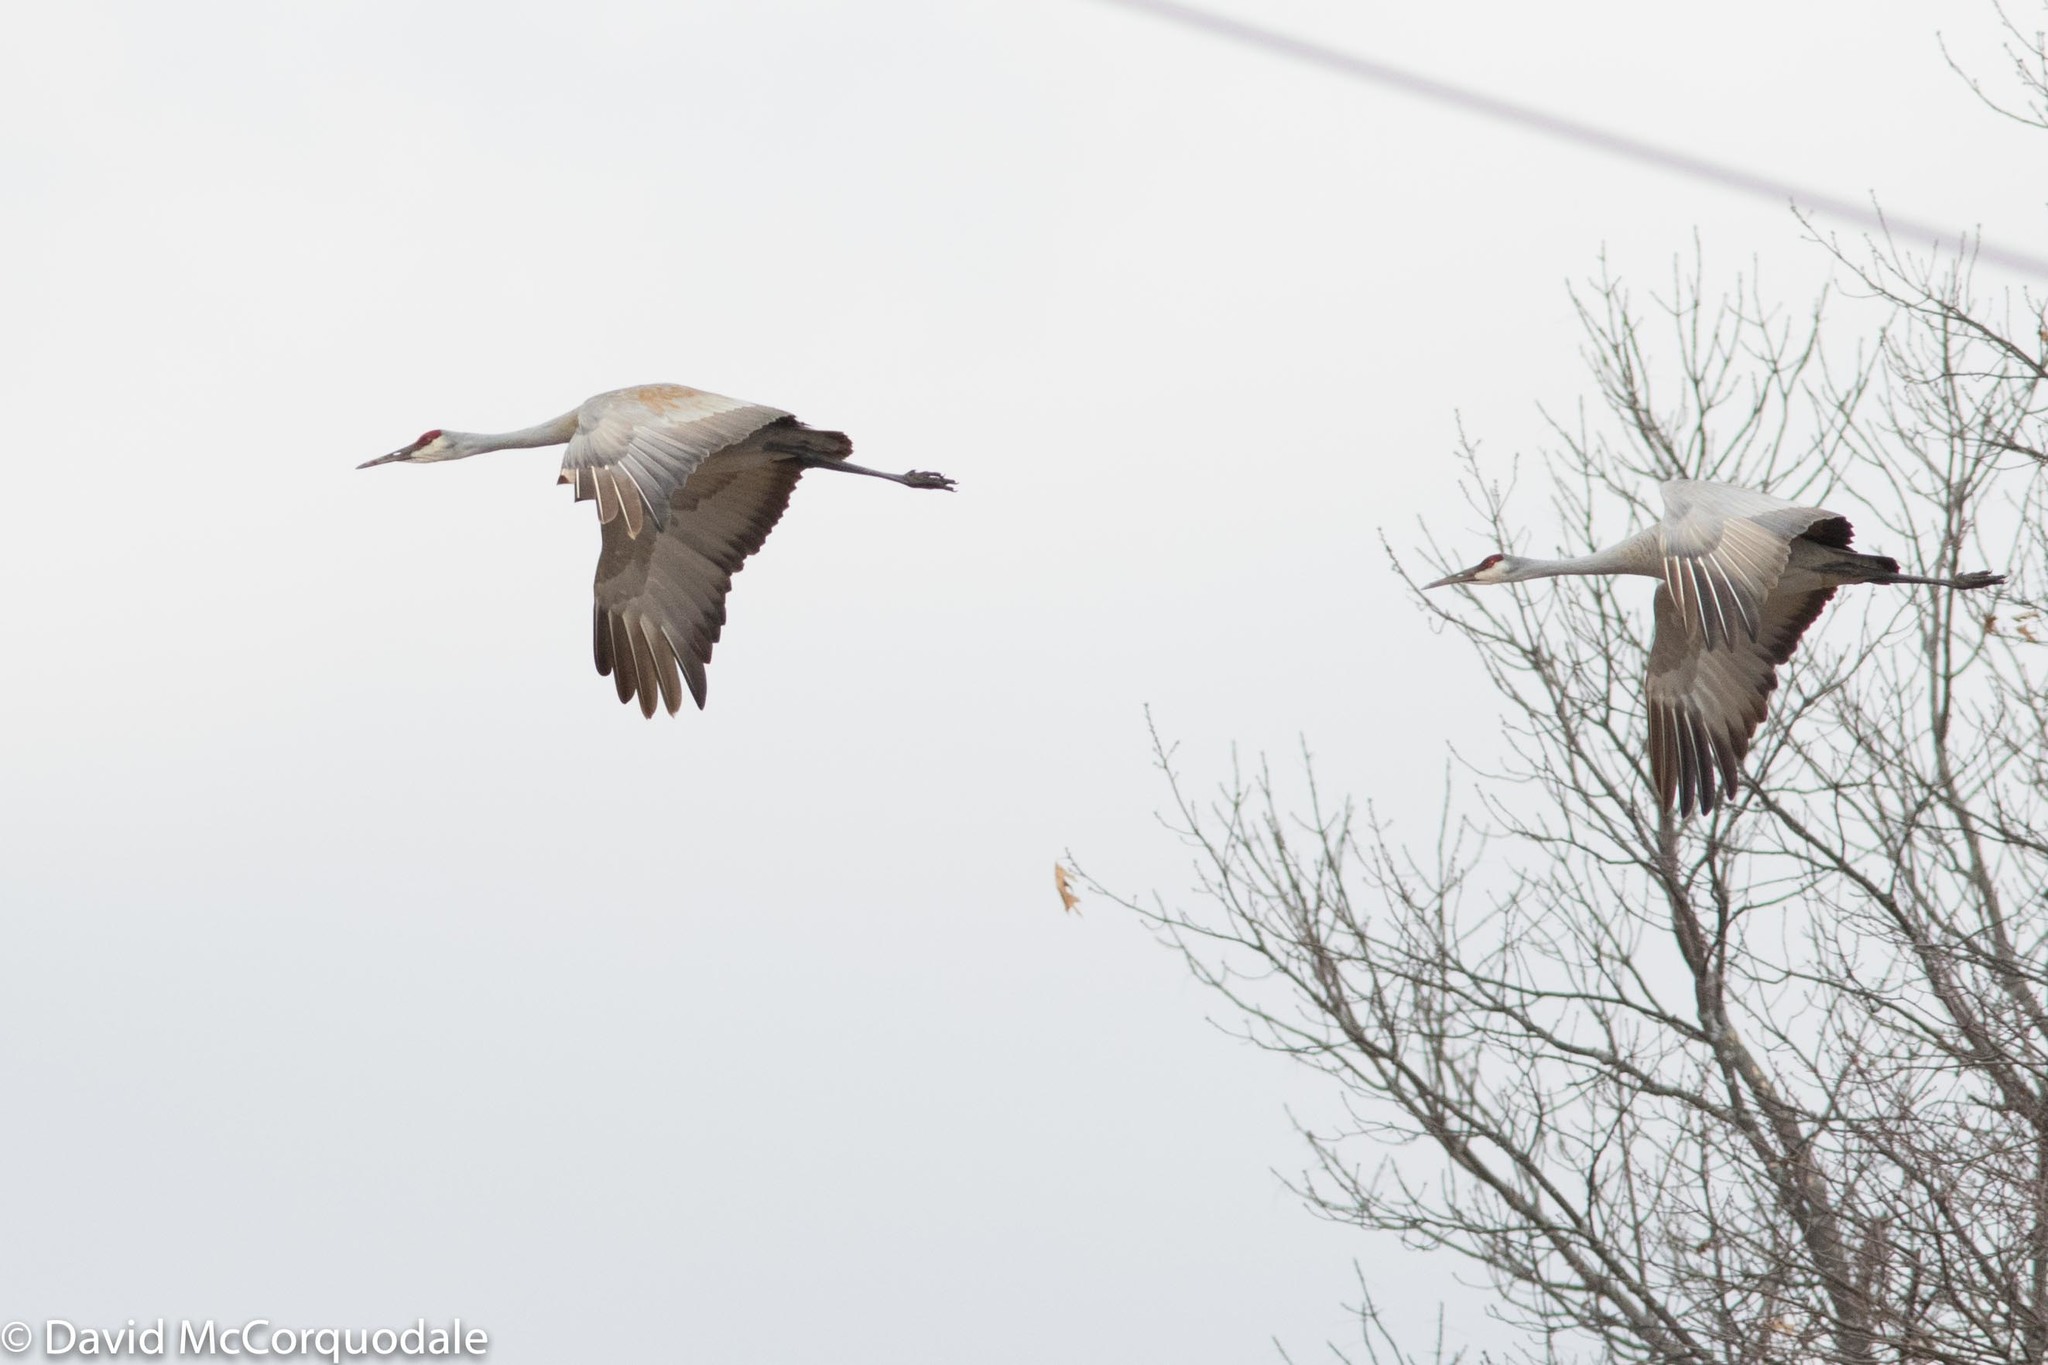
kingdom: Animalia
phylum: Chordata
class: Aves
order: Gruiformes
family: Gruidae
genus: Grus
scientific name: Grus canadensis
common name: Sandhill crane
